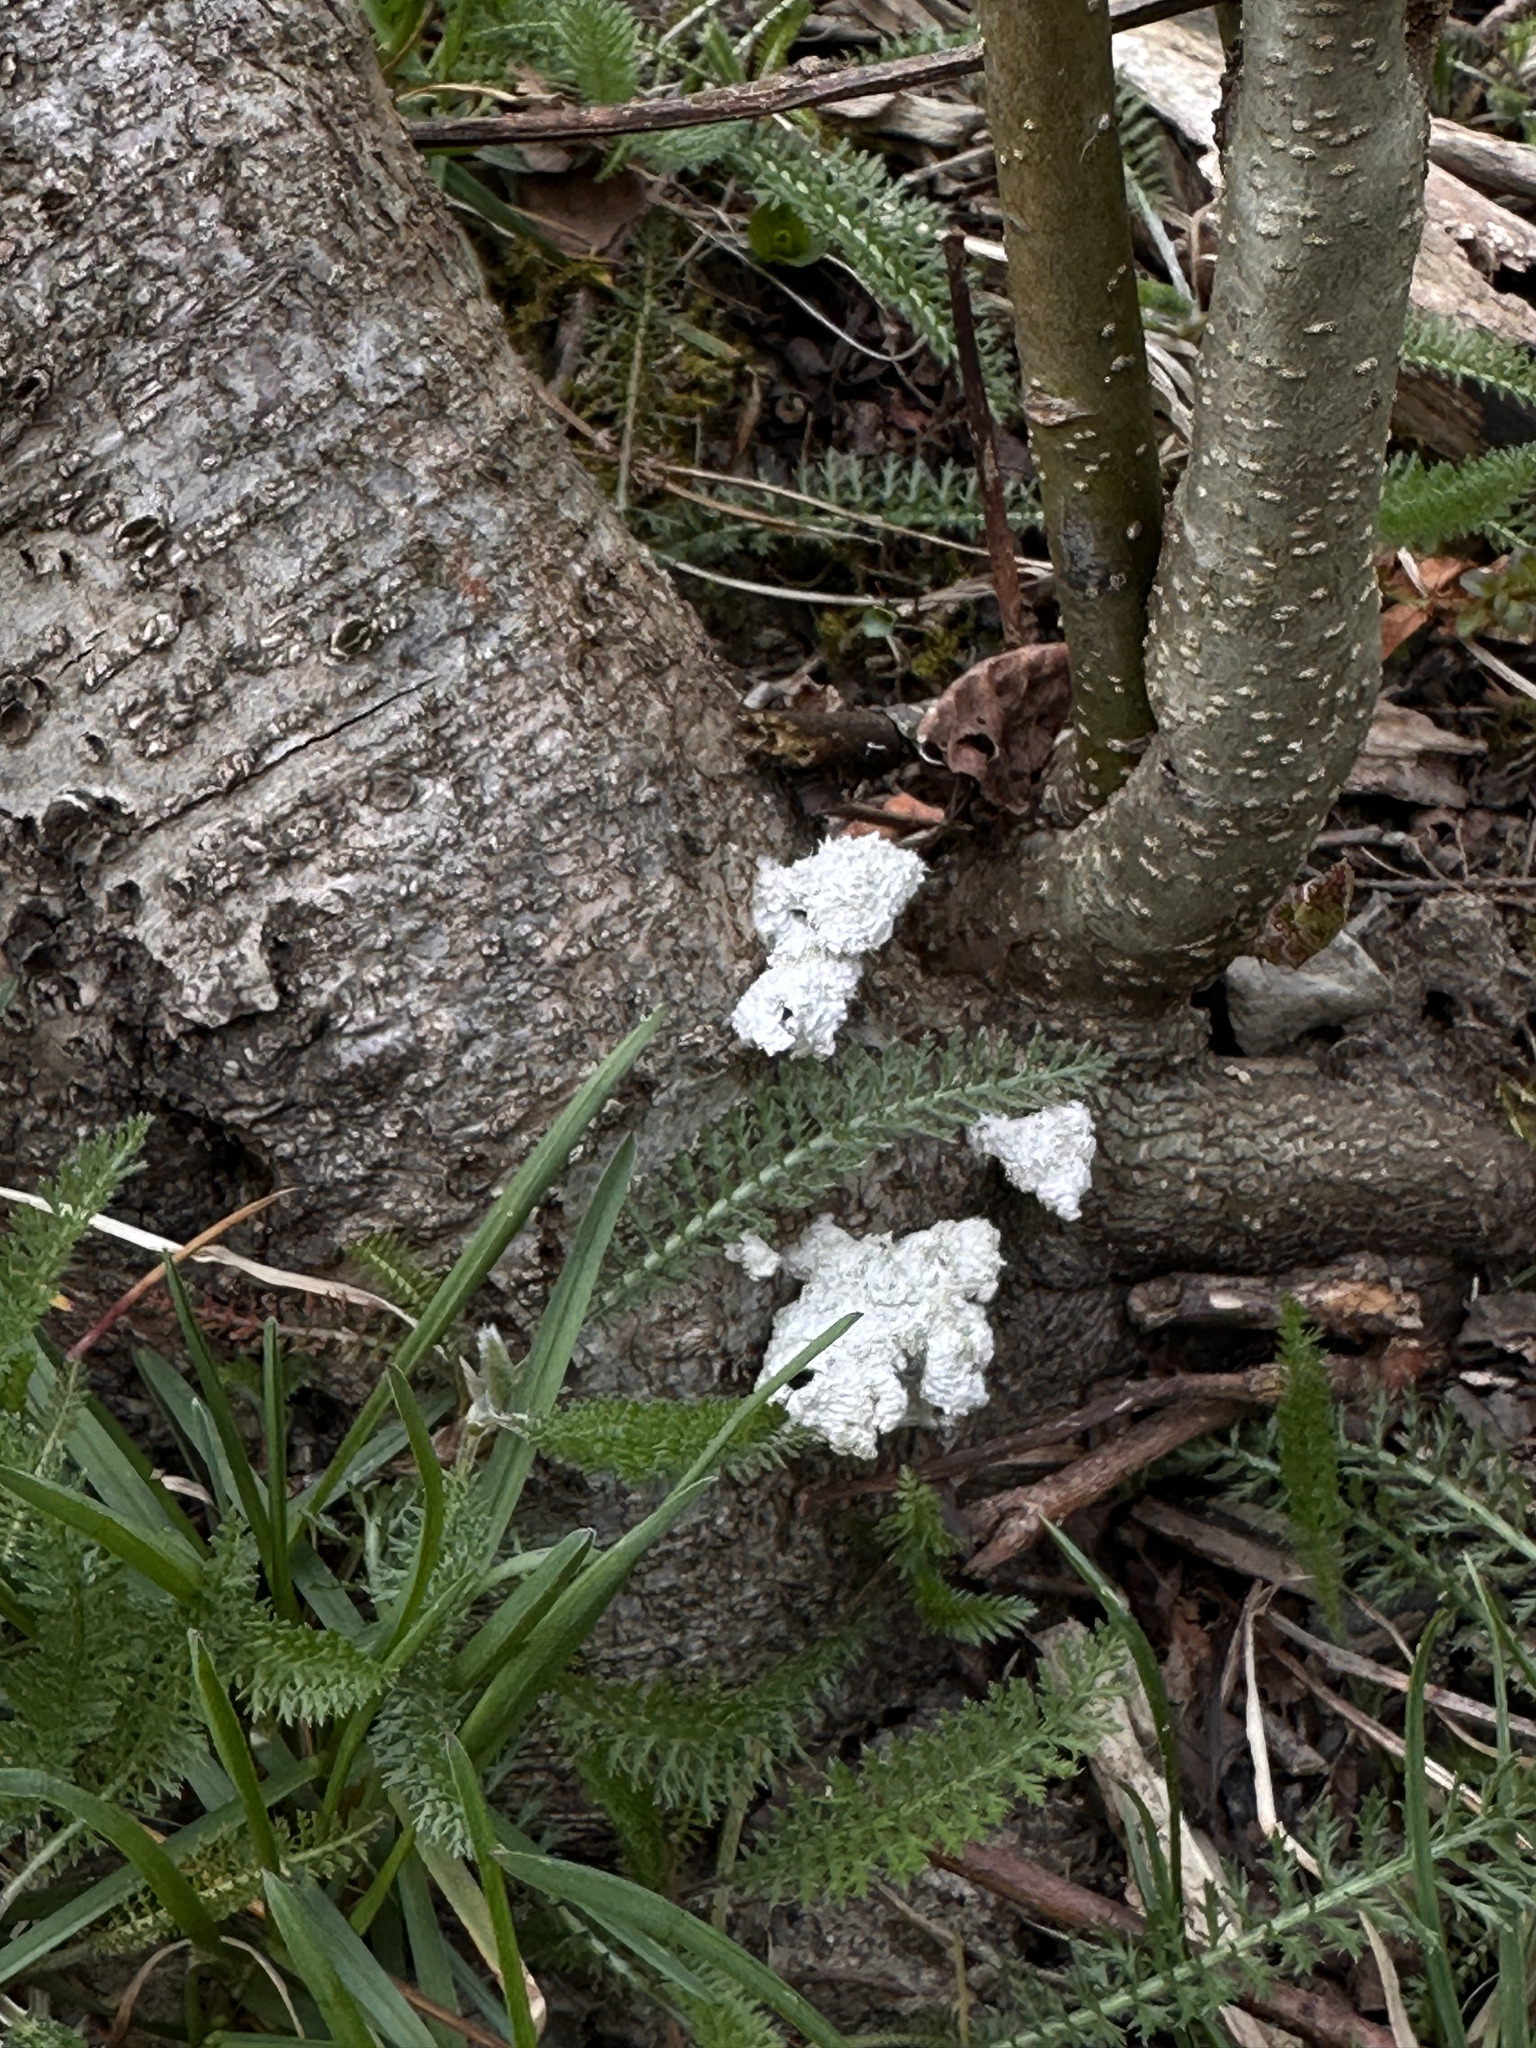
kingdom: Fungi
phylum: Basidiomycota
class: Agaricomycetes
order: Agaricales
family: Schizophyllaceae
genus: Schizophyllum
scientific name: Schizophyllum commune
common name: Common porecrust
